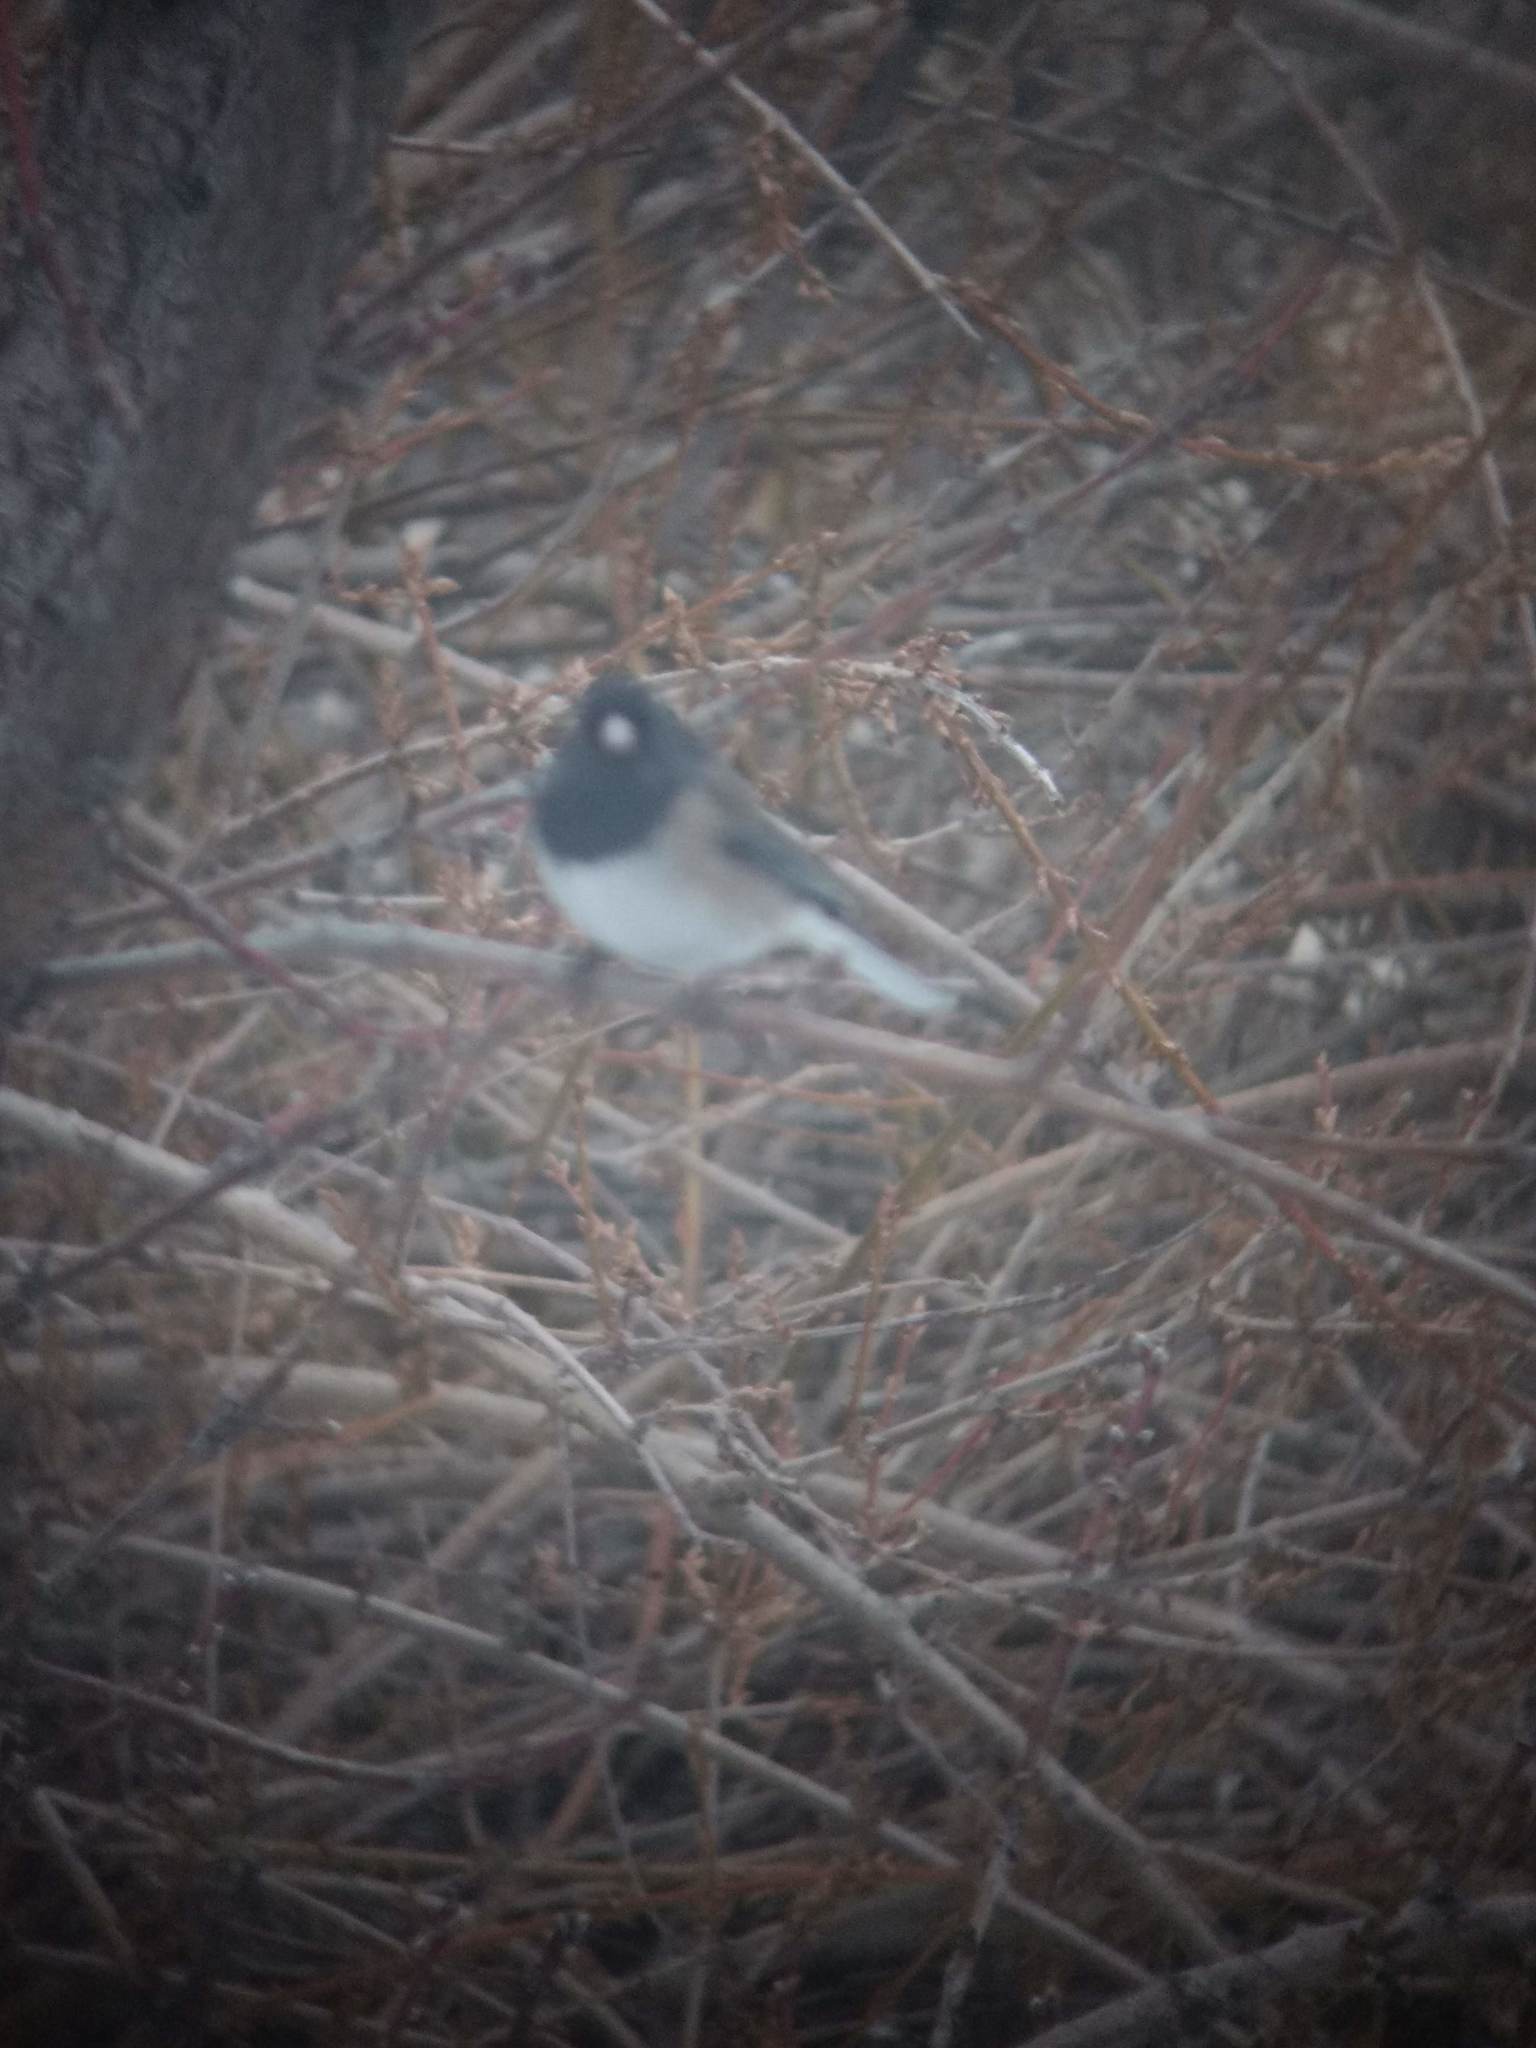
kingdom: Animalia
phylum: Chordata
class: Aves
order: Passeriformes
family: Passerellidae
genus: Junco
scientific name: Junco hyemalis
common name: Dark-eyed junco
